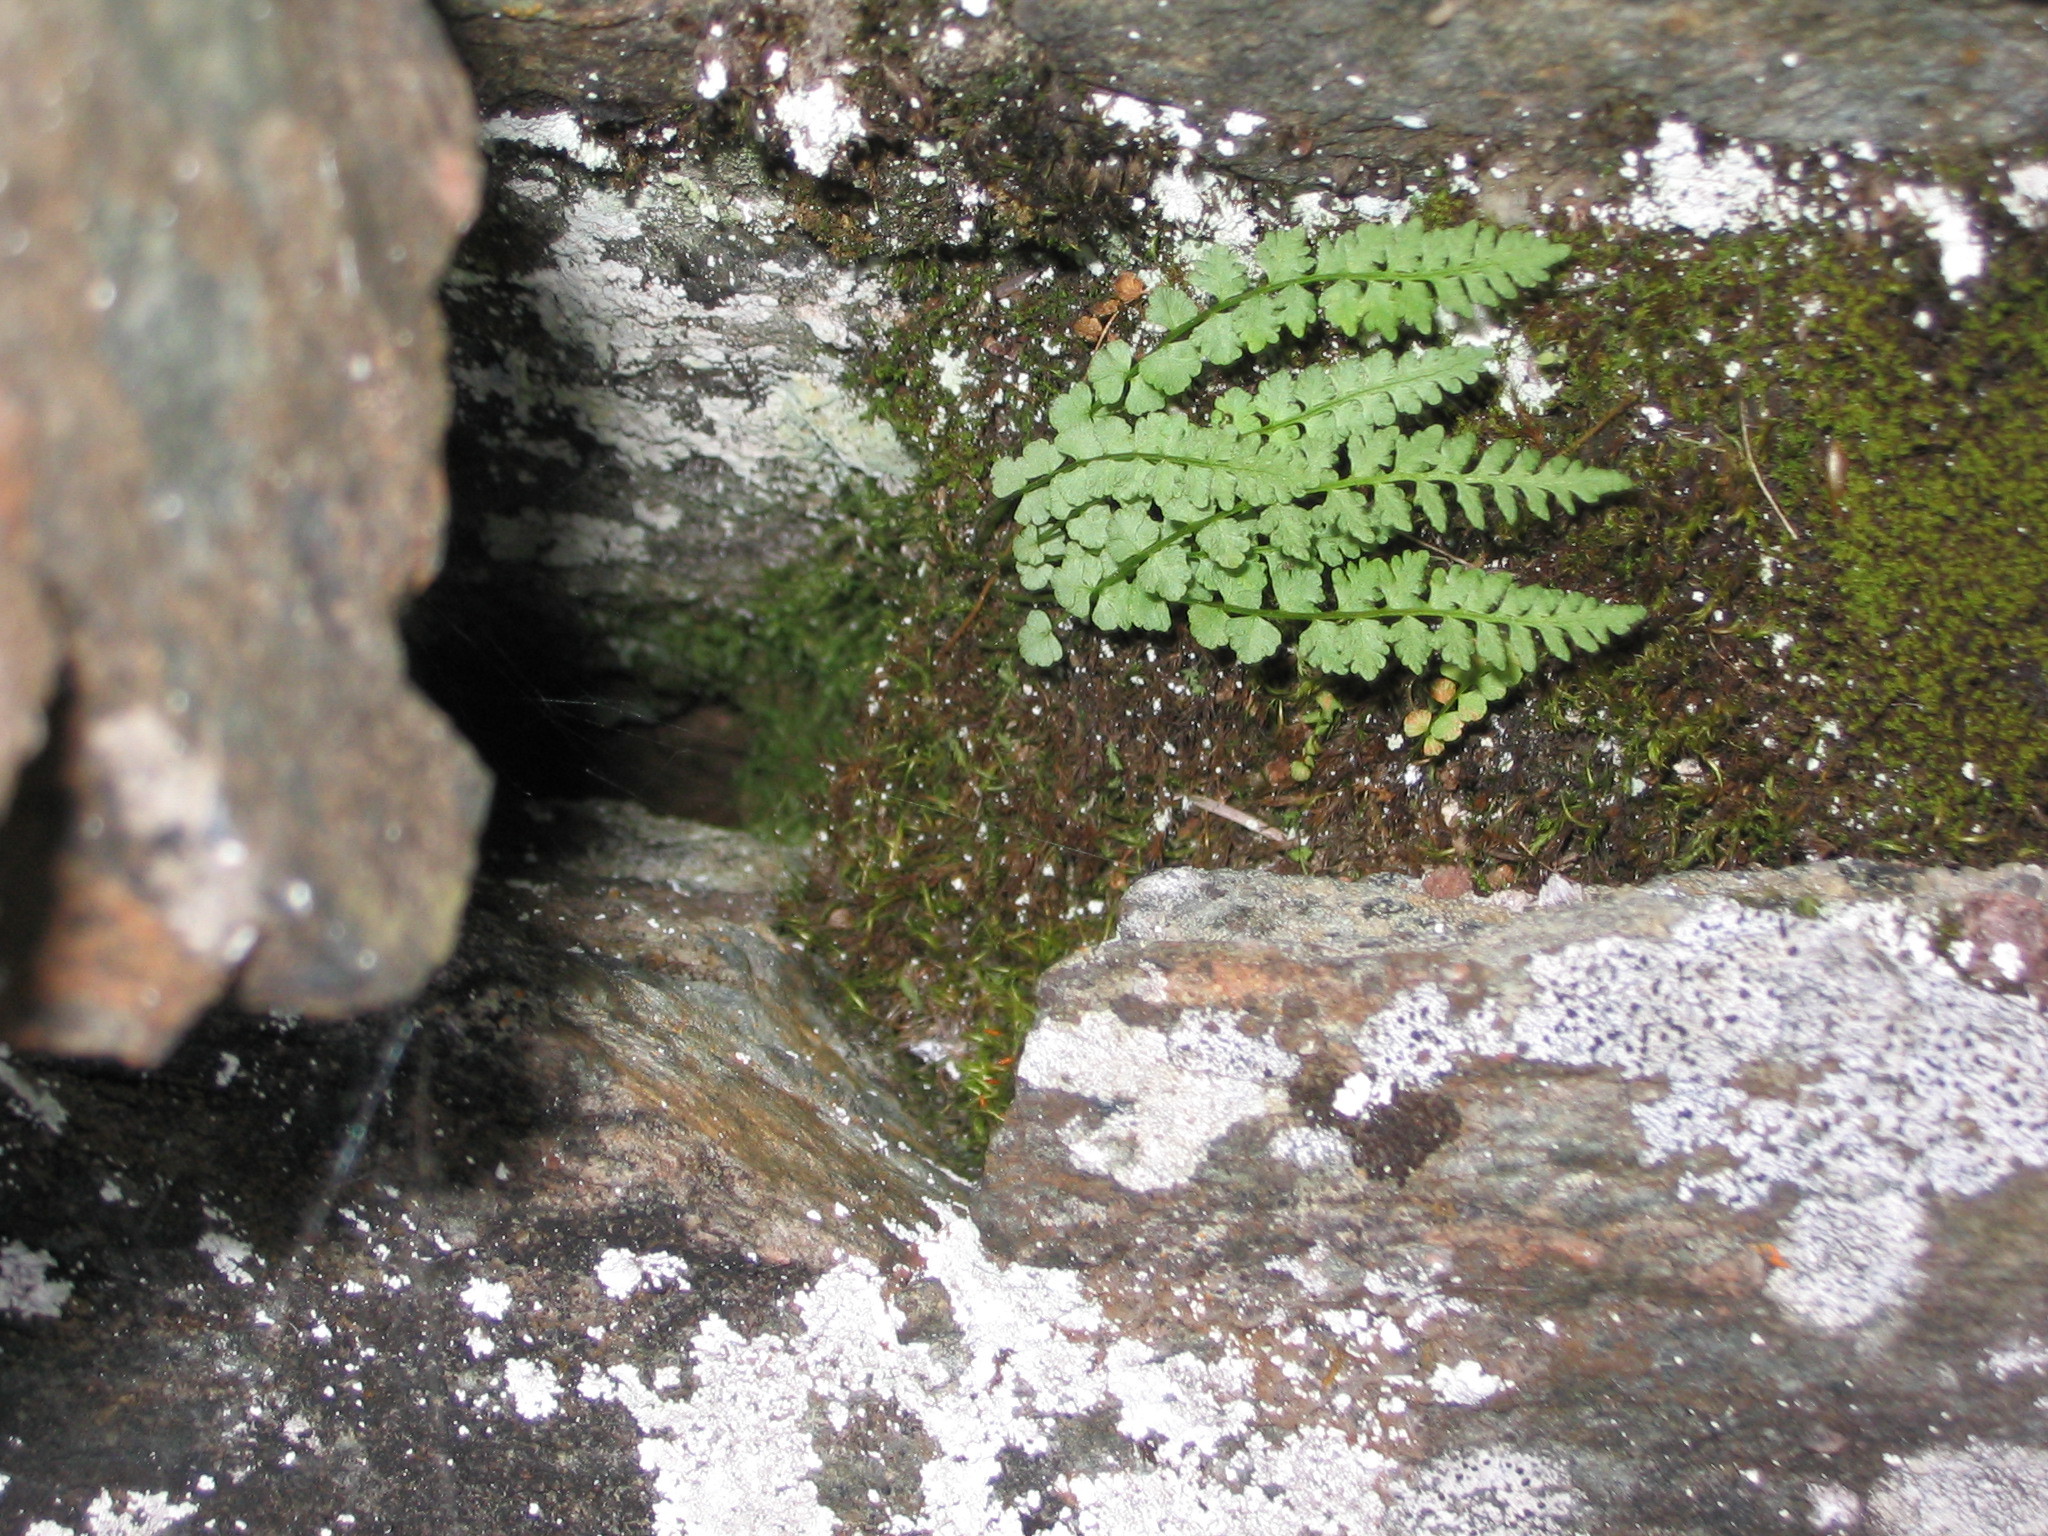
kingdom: Plantae
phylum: Tracheophyta
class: Polypodiopsida
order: Polypodiales
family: Woodsiaceae
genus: Woodsia
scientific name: Woodsia glabella
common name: Smooth woodsia
